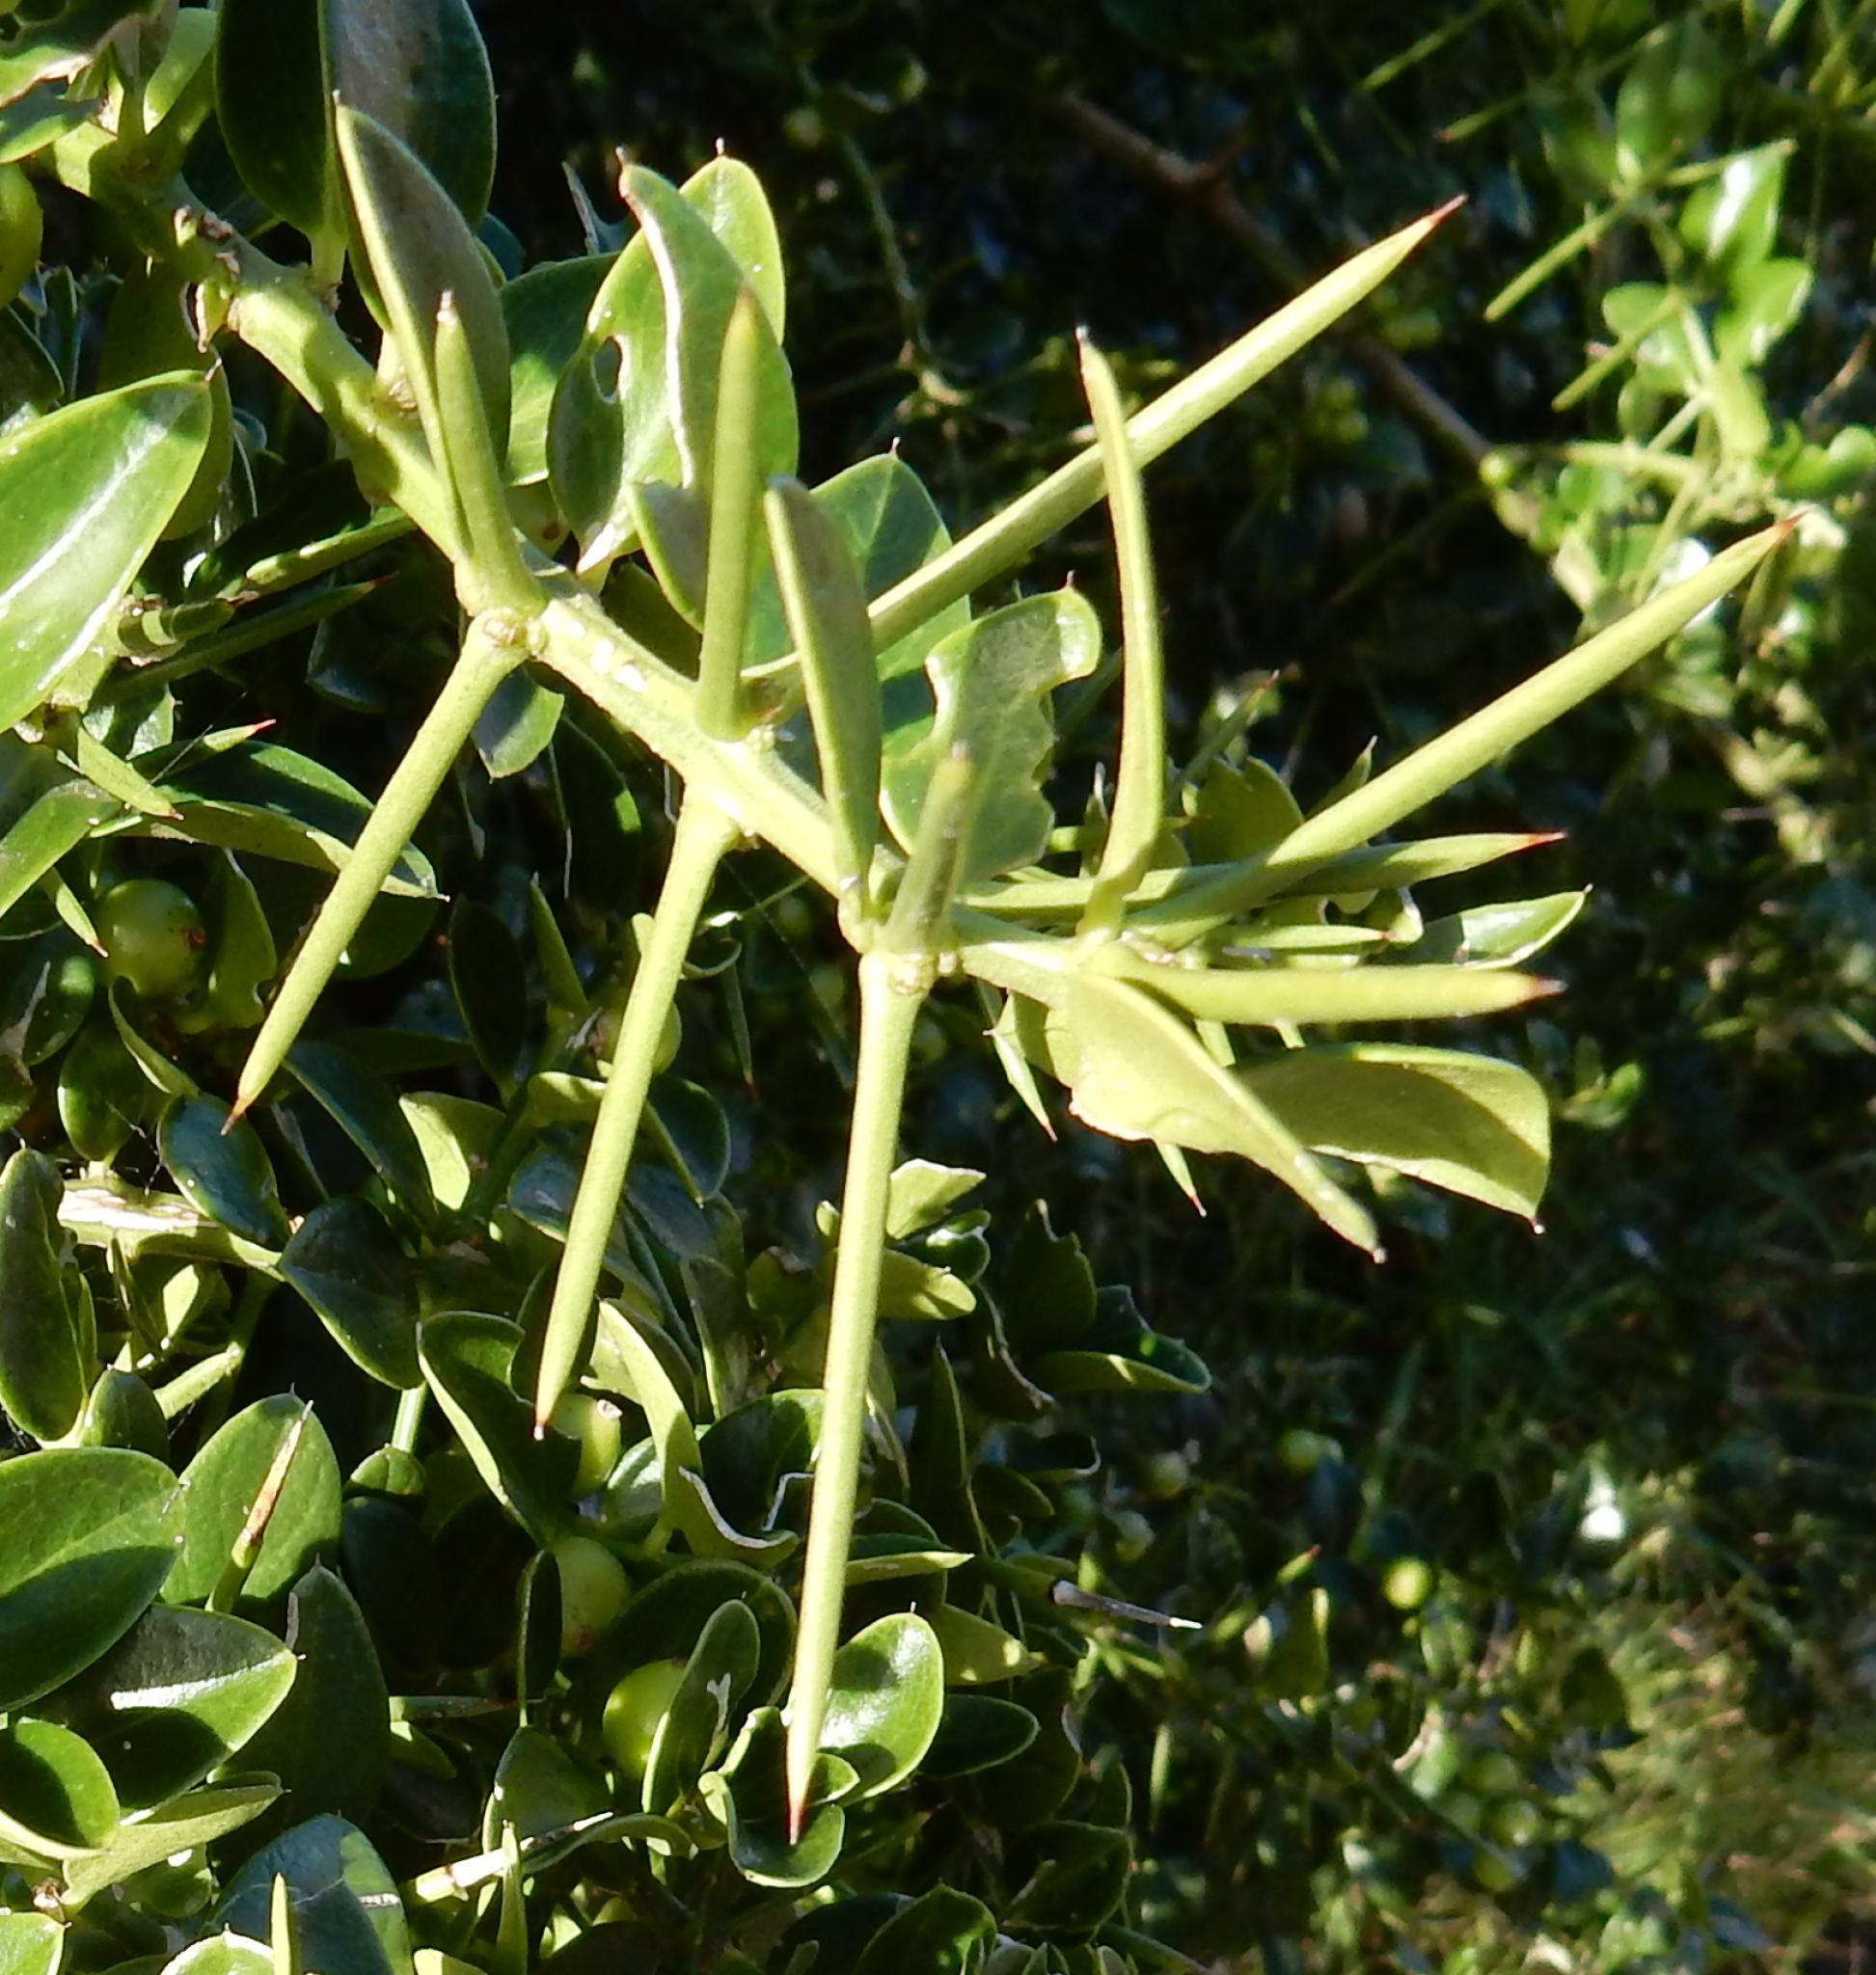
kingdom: Plantae
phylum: Tracheophyta
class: Magnoliopsida
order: Brassicales
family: Salvadoraceae
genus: Azima
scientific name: Azima tetracantha
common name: Needle bush
